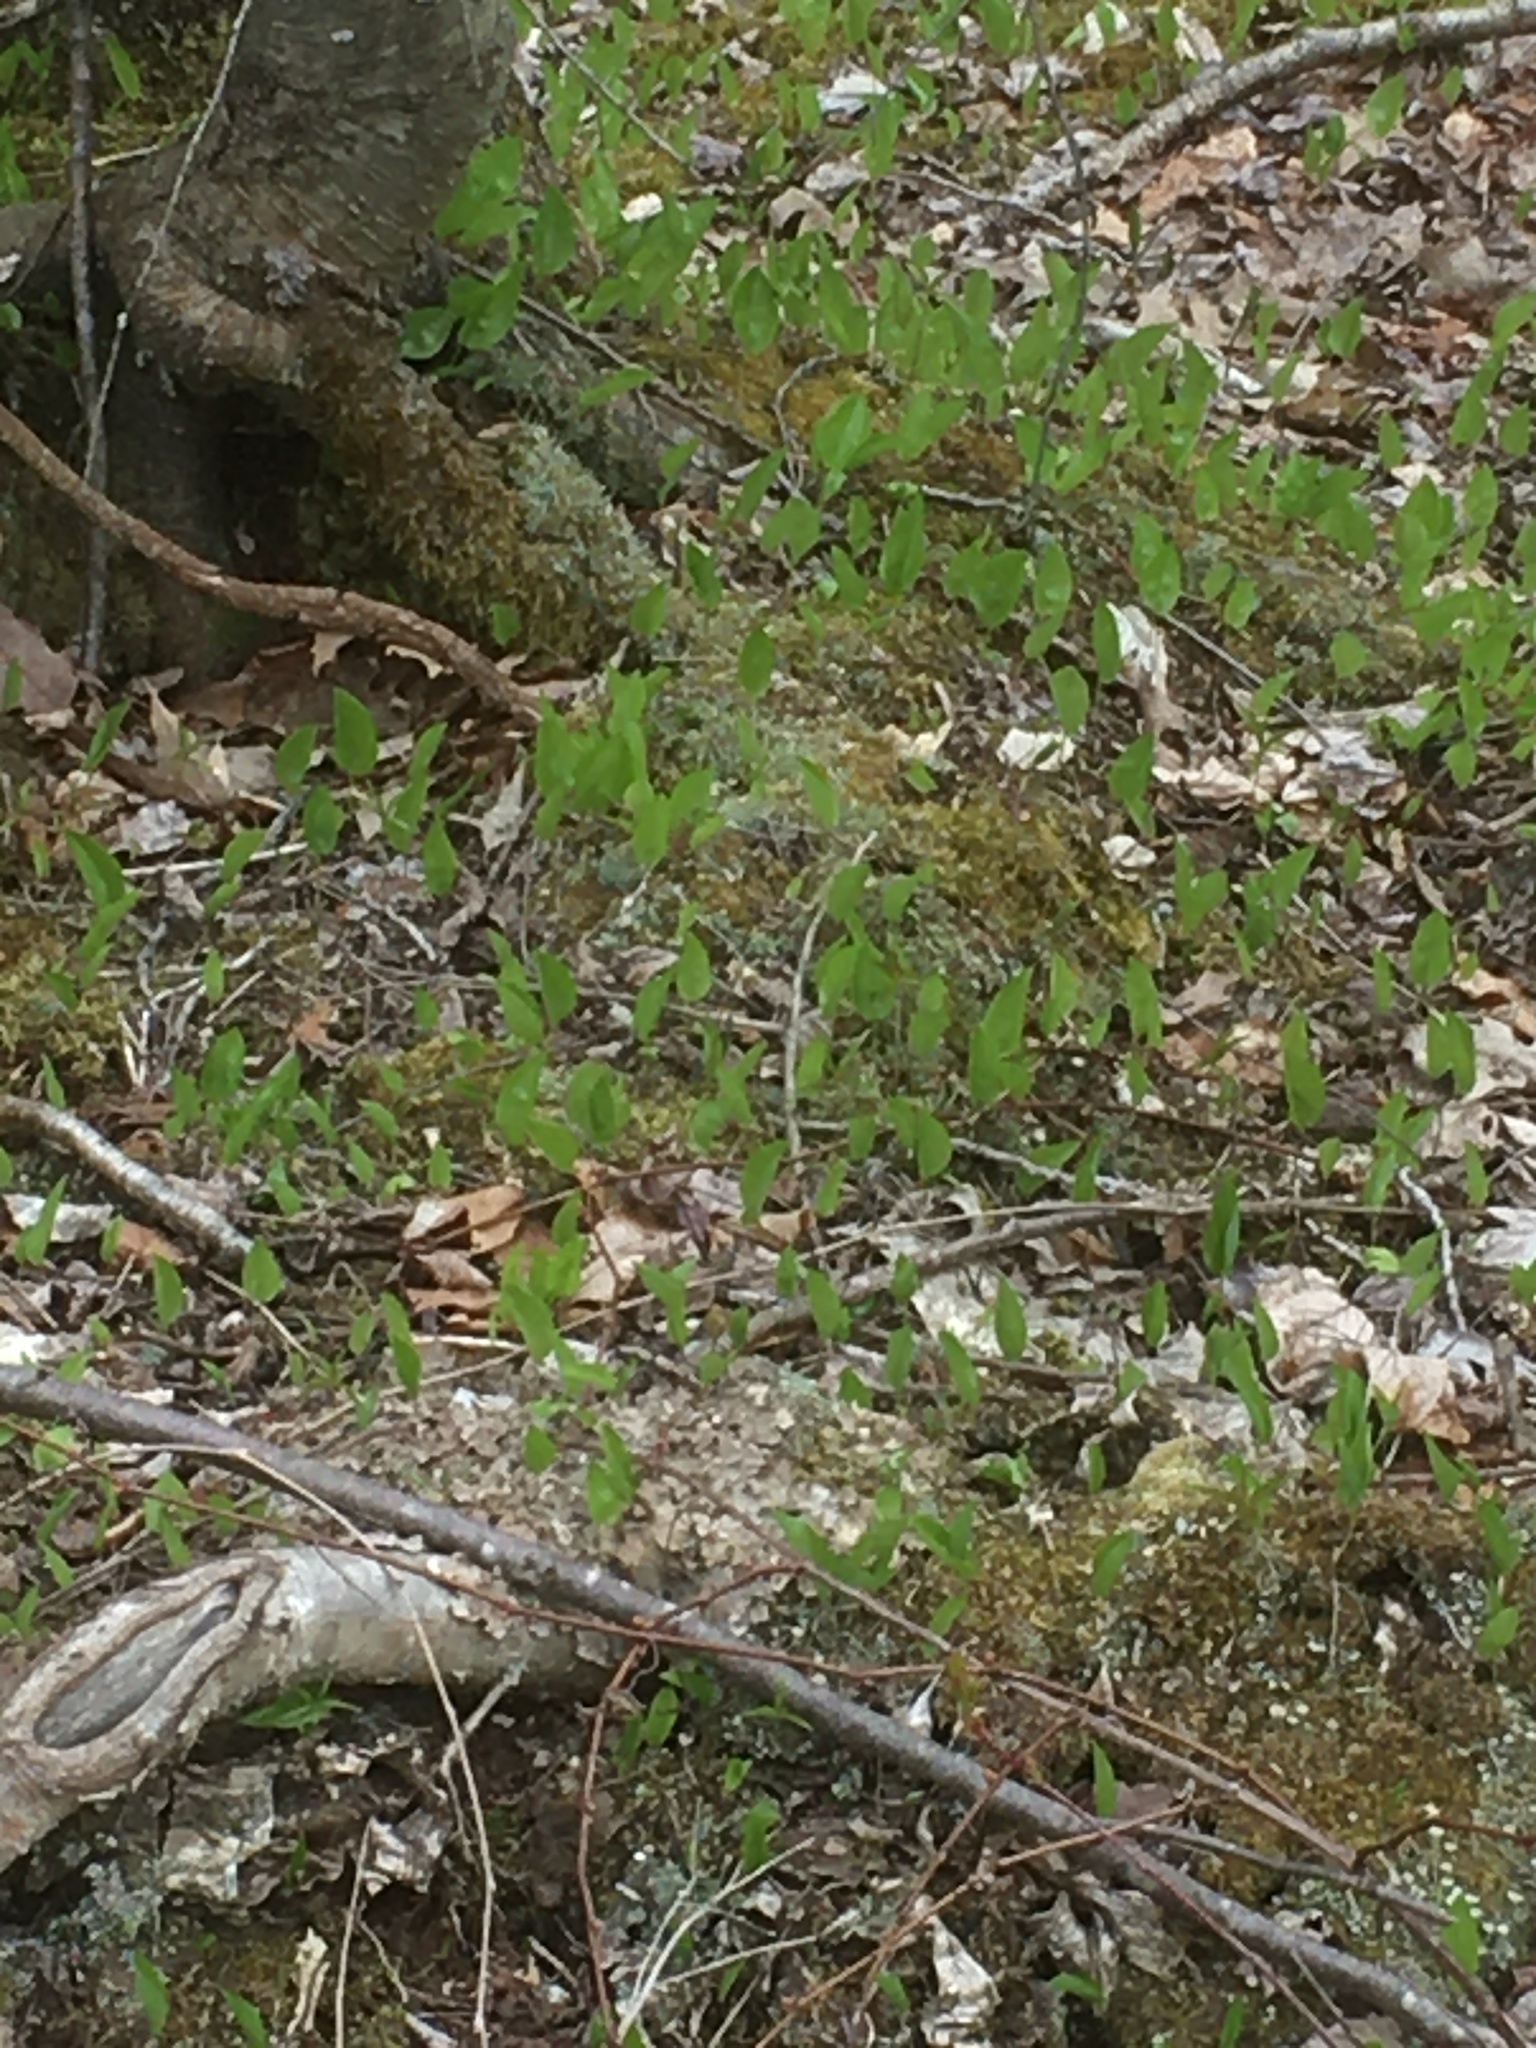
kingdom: Plantae
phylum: Tracheophyta
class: Liliopsida
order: Asparagales
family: Asparagaceae
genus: Maianthemum
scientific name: Maianthemum canadense
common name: False lily-of-the-valley
